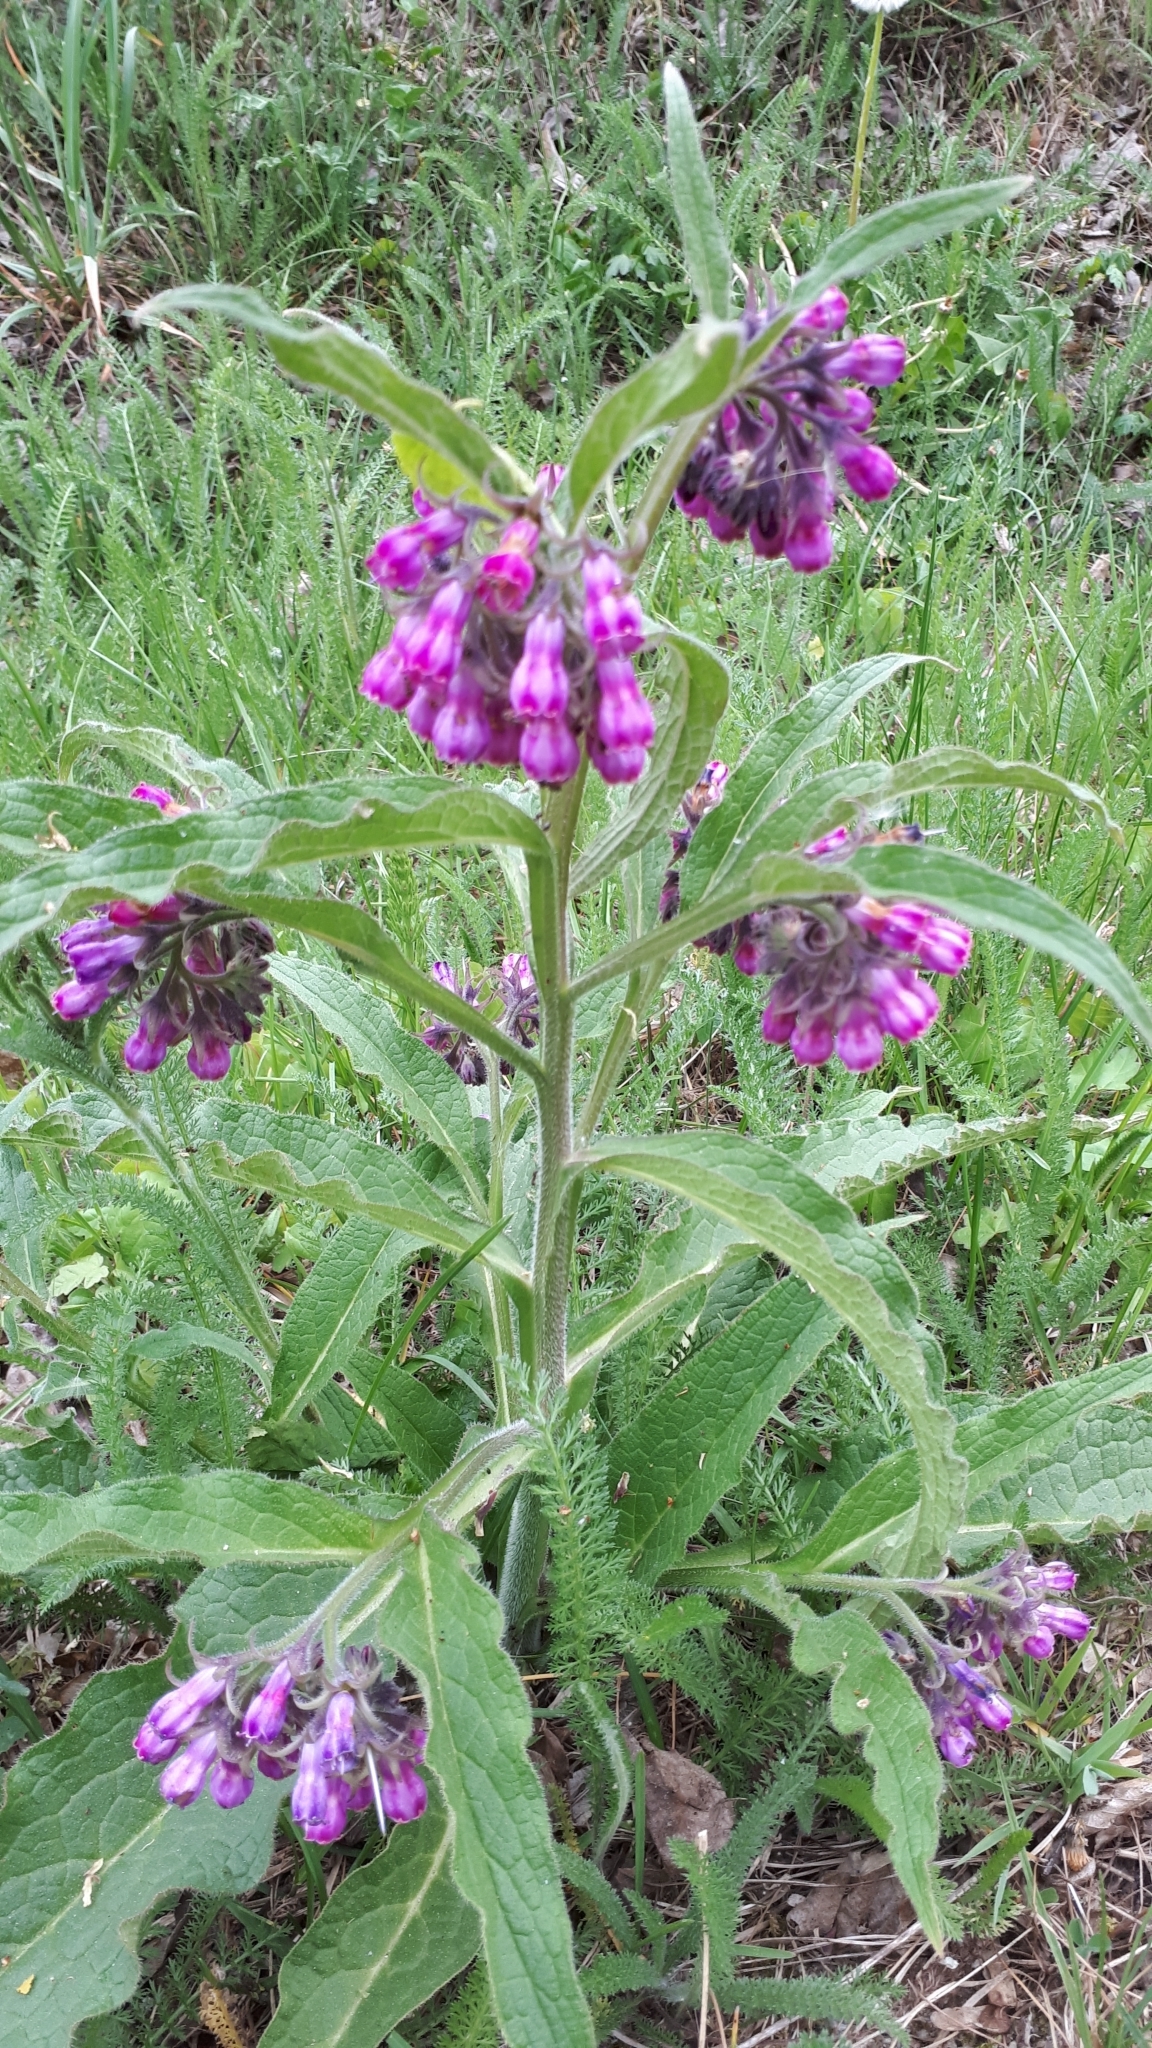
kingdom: Plantae
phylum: Tracheophyta
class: Magnoliopsida
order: Boraginales
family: Boraginaceae
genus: Symphytum
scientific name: Symphytum officinale
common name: Common comfrey
